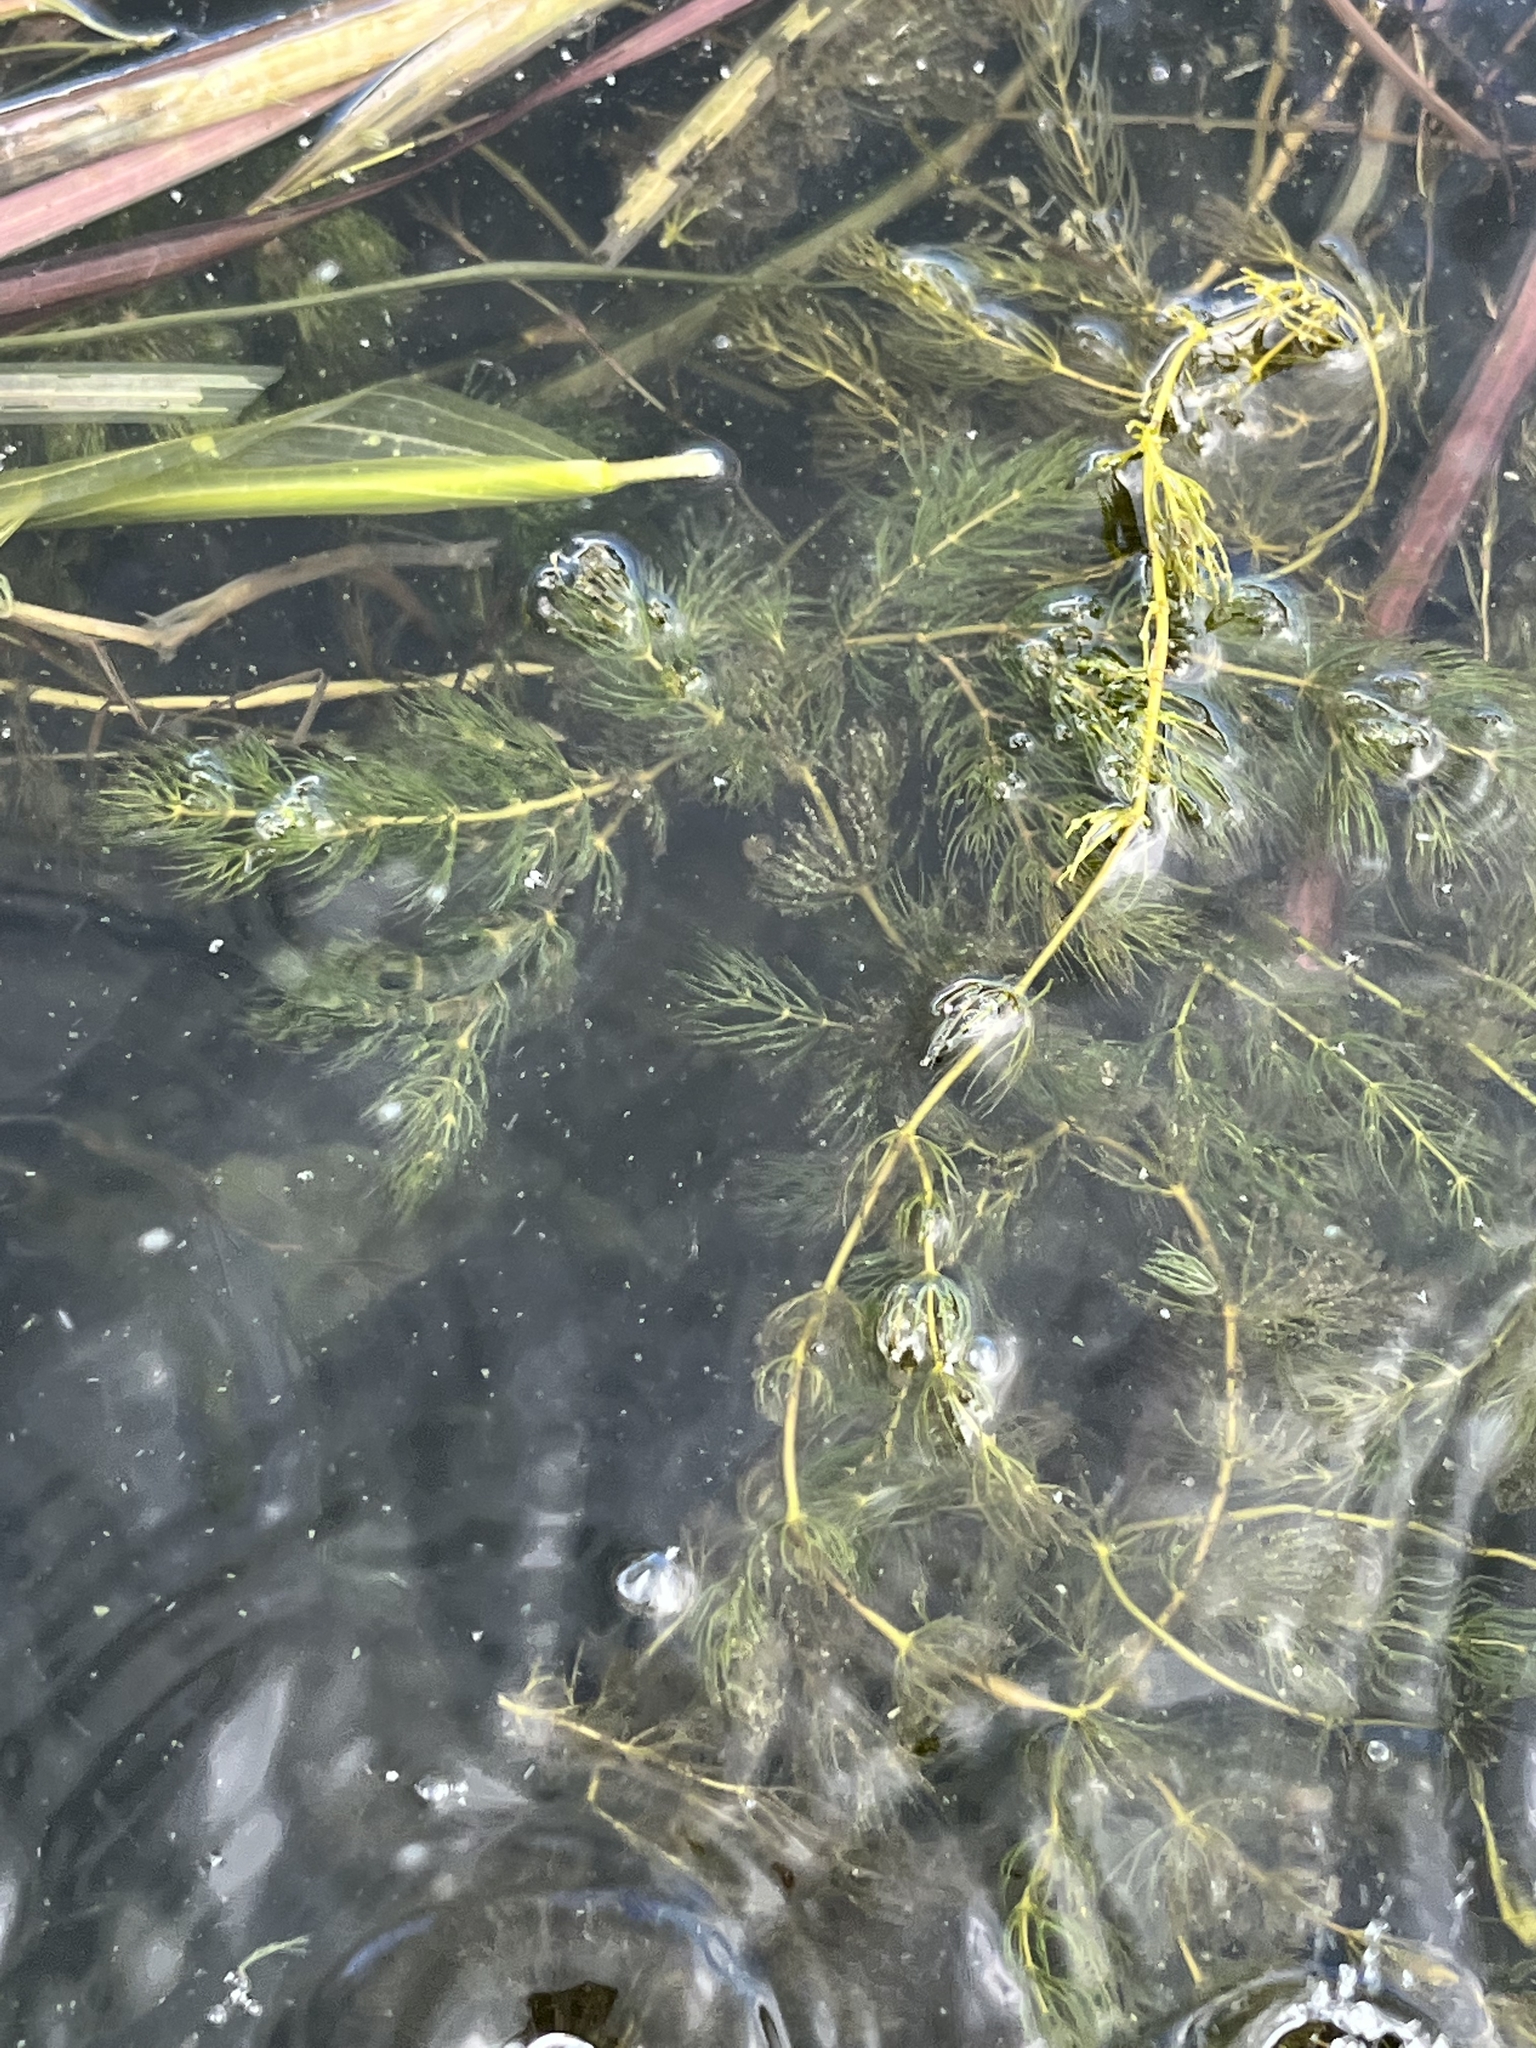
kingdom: Plantae
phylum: Tracheophyta
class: Magnoliopsida
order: Ceratophyllales
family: Ceratophyllaceae
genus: Ceratophyllum
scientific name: Ceratophyllum demersum
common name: Rigid hornwort
